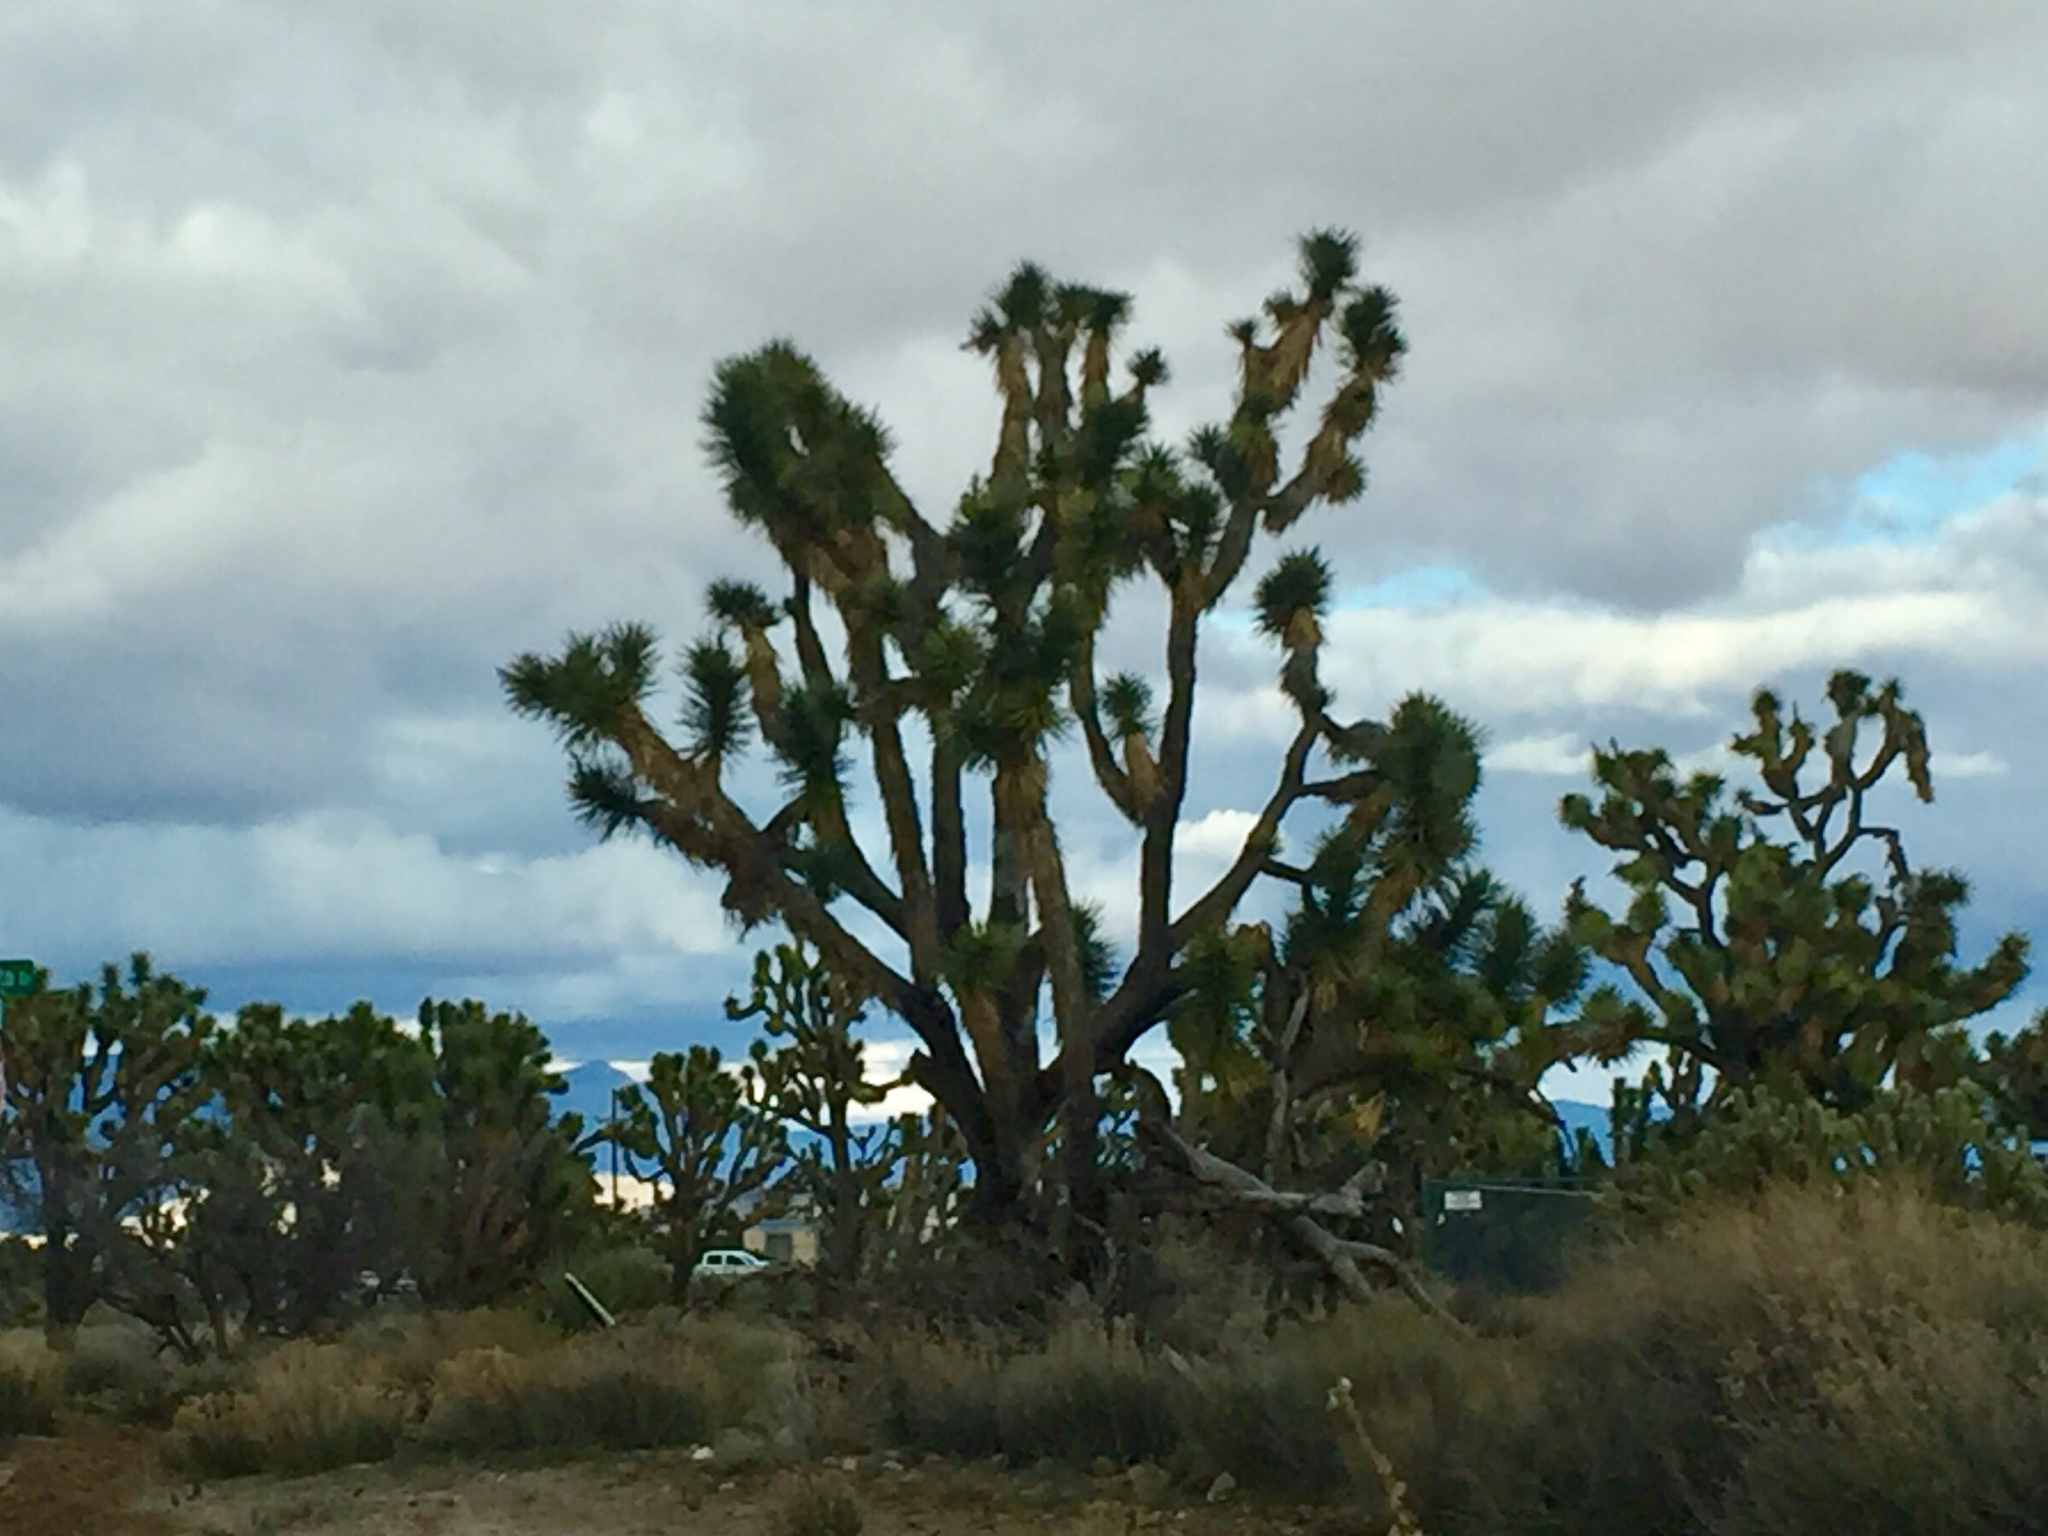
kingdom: Plantae
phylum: Tracheophyta
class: Liliopsida
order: Asparagales
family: Asparagaceae
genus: Yucca
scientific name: Yucca brevifolia
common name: Joshua tree
